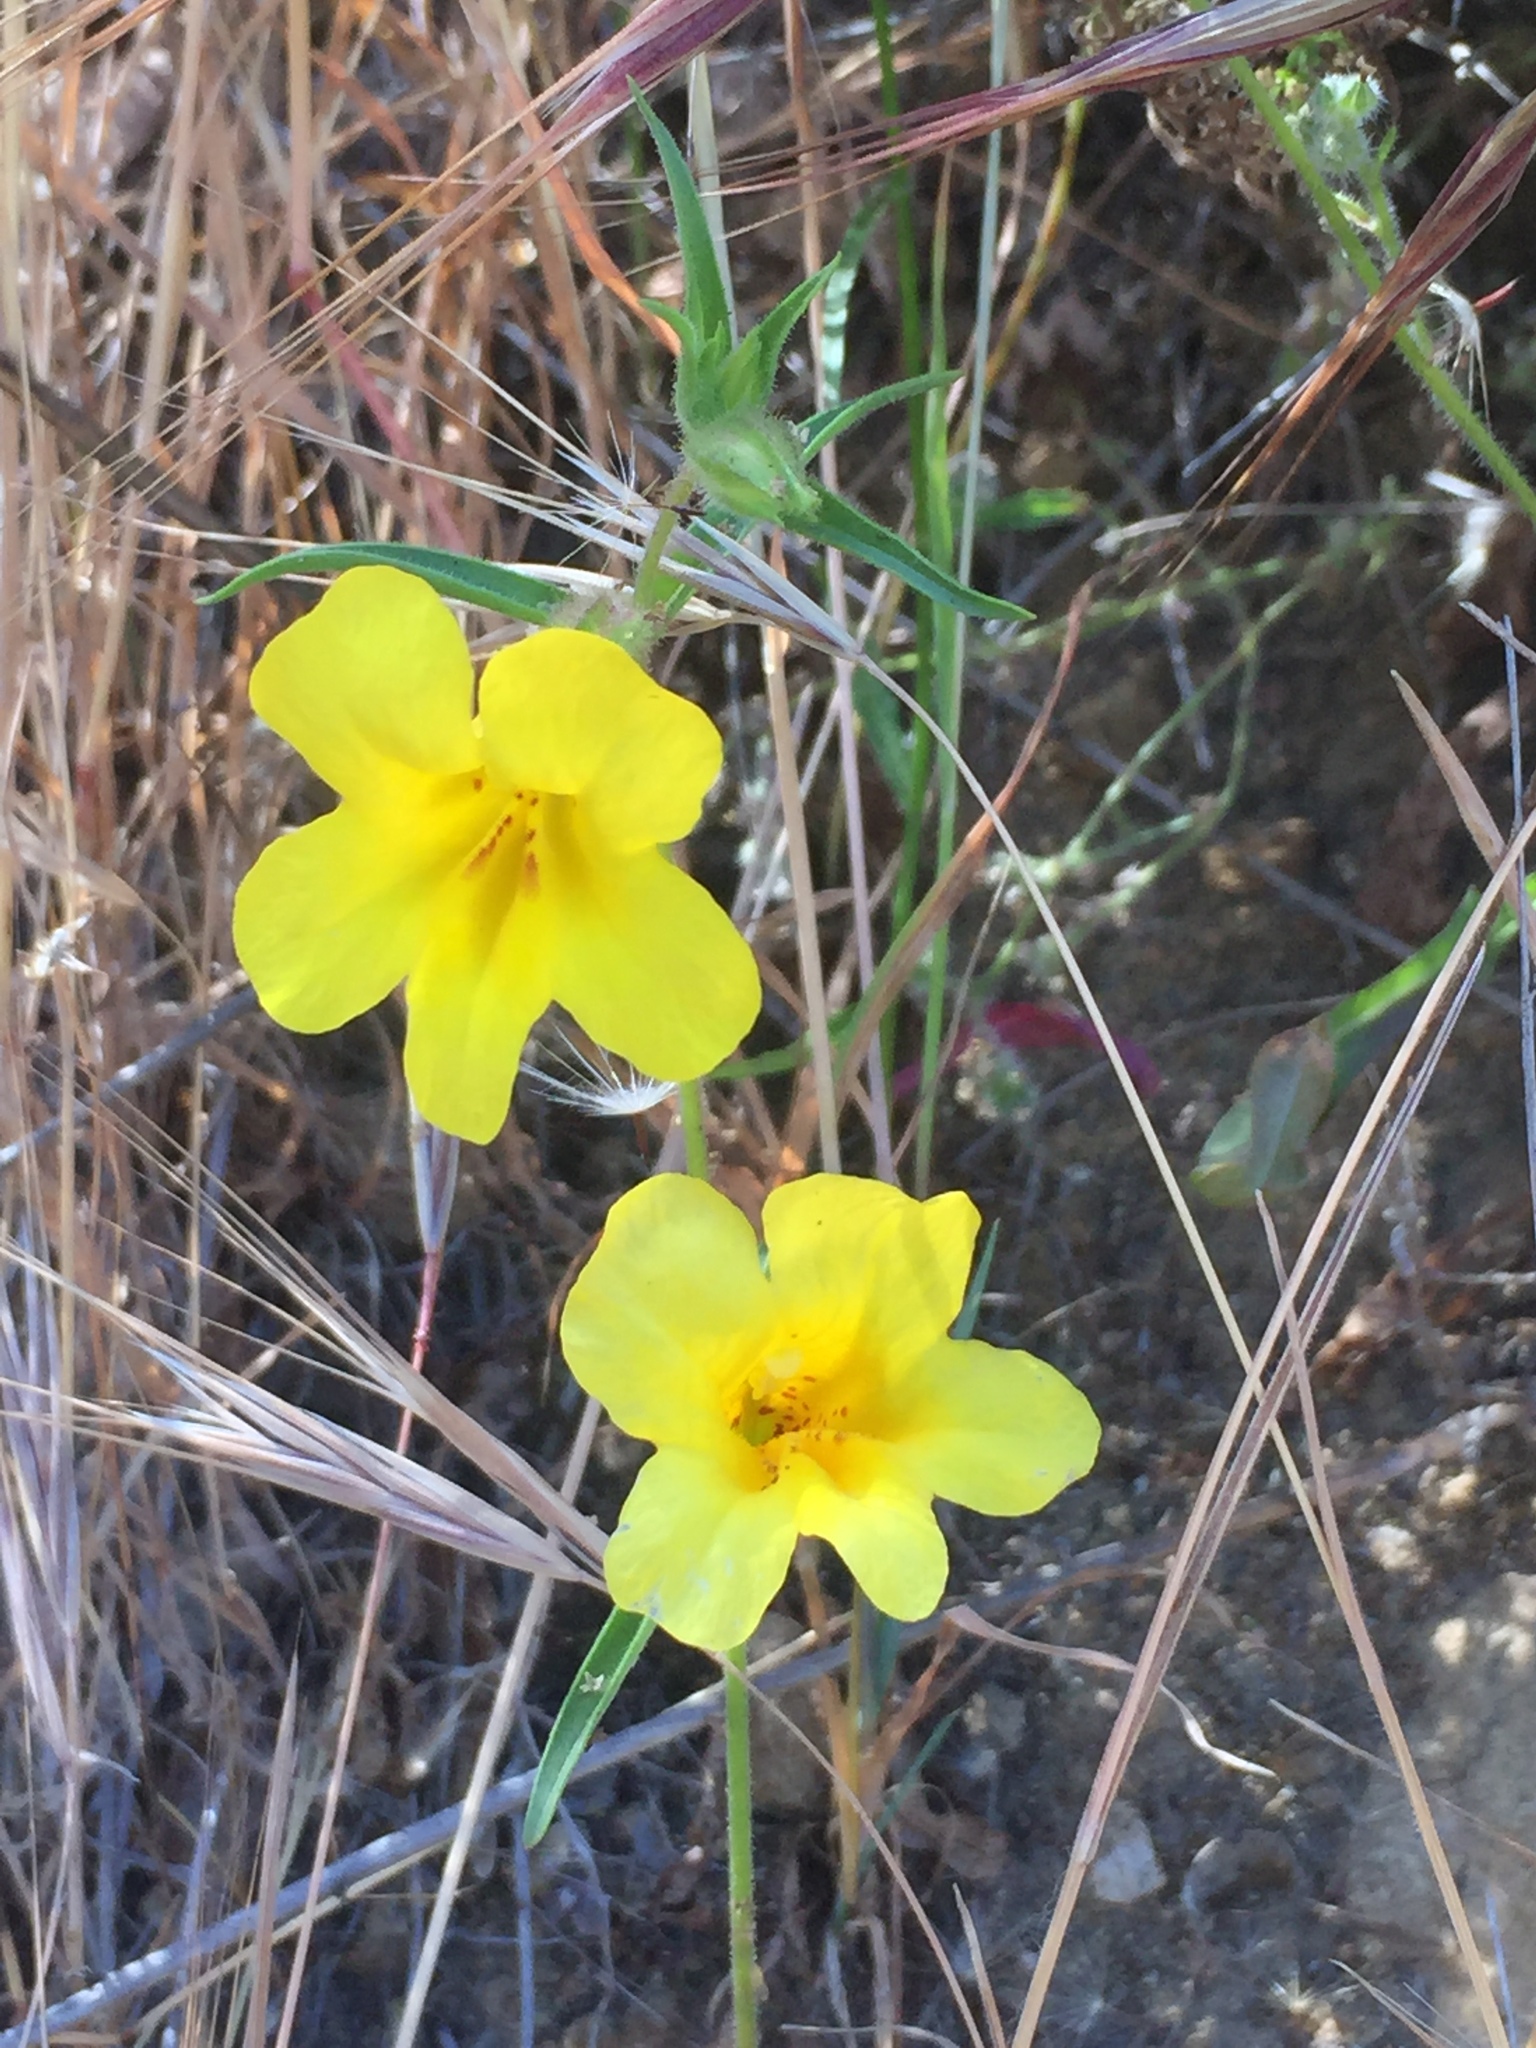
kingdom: Plantae
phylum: Tracheophyta
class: Magnoliopsida
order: Lamiales
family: Phrymaceae
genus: Diplacus
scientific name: Diplacus brevipes
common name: Wide-throat yellow monkey-flower
